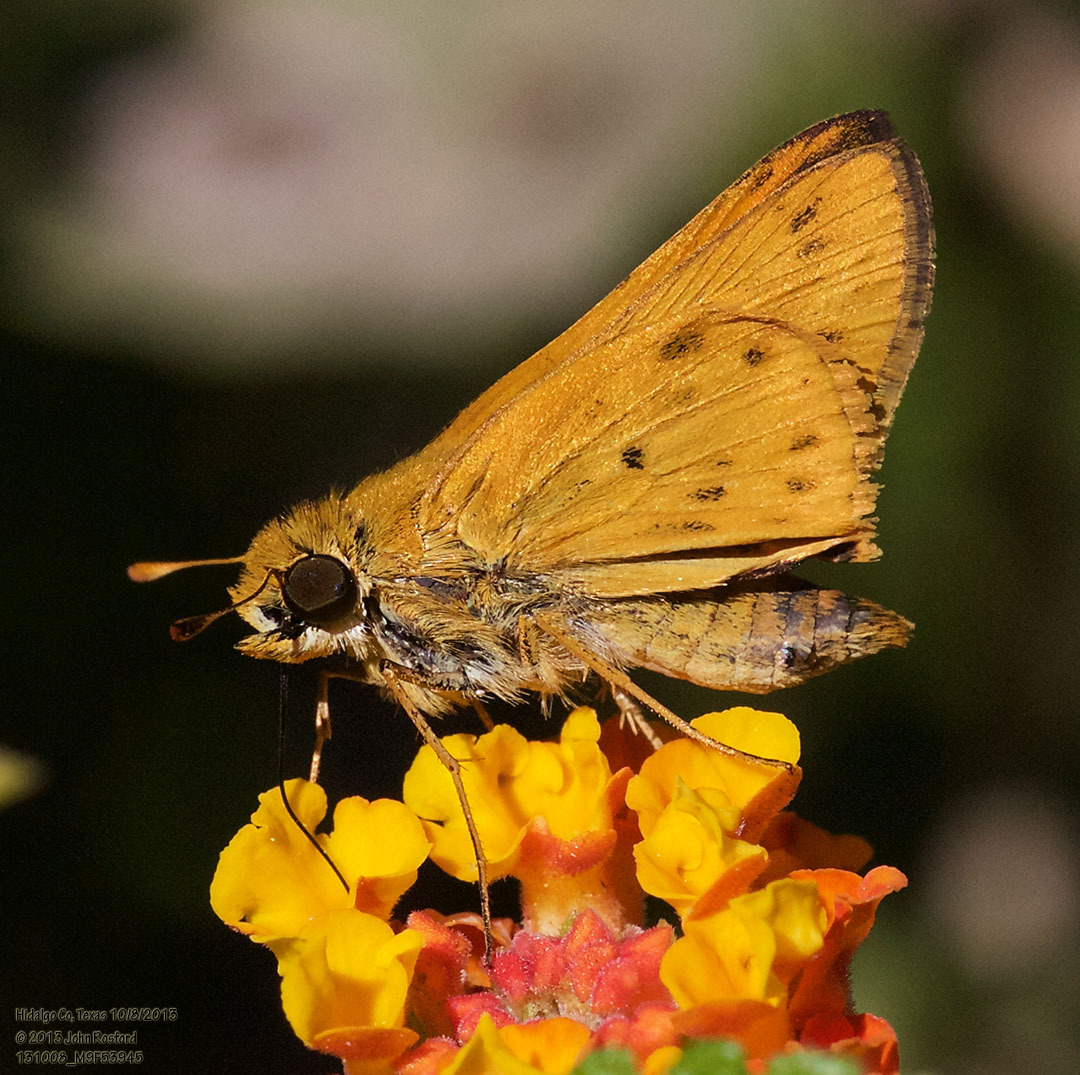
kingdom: Animalia
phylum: Arthropoda
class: Insecta
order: Lepidoptera
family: Hesperiidae
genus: Hylephila
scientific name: Hylephila phyleus
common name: Fiery skipper
